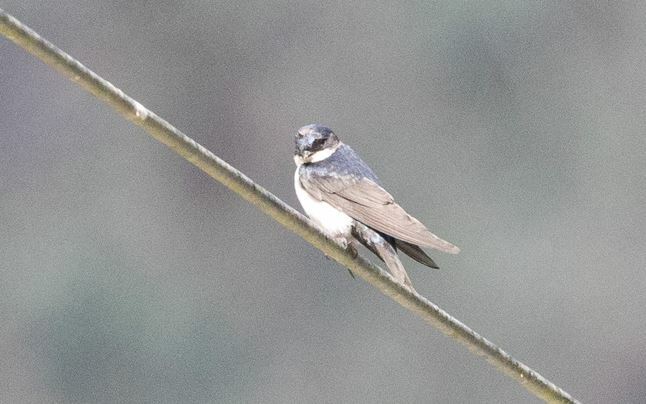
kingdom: Animalia
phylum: Chordata
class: Aves
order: Passeriformes
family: Hirundinidae
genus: Notiochelidon
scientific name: Notiochelidon cyanoleuca
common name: Blue-and-white swallow
